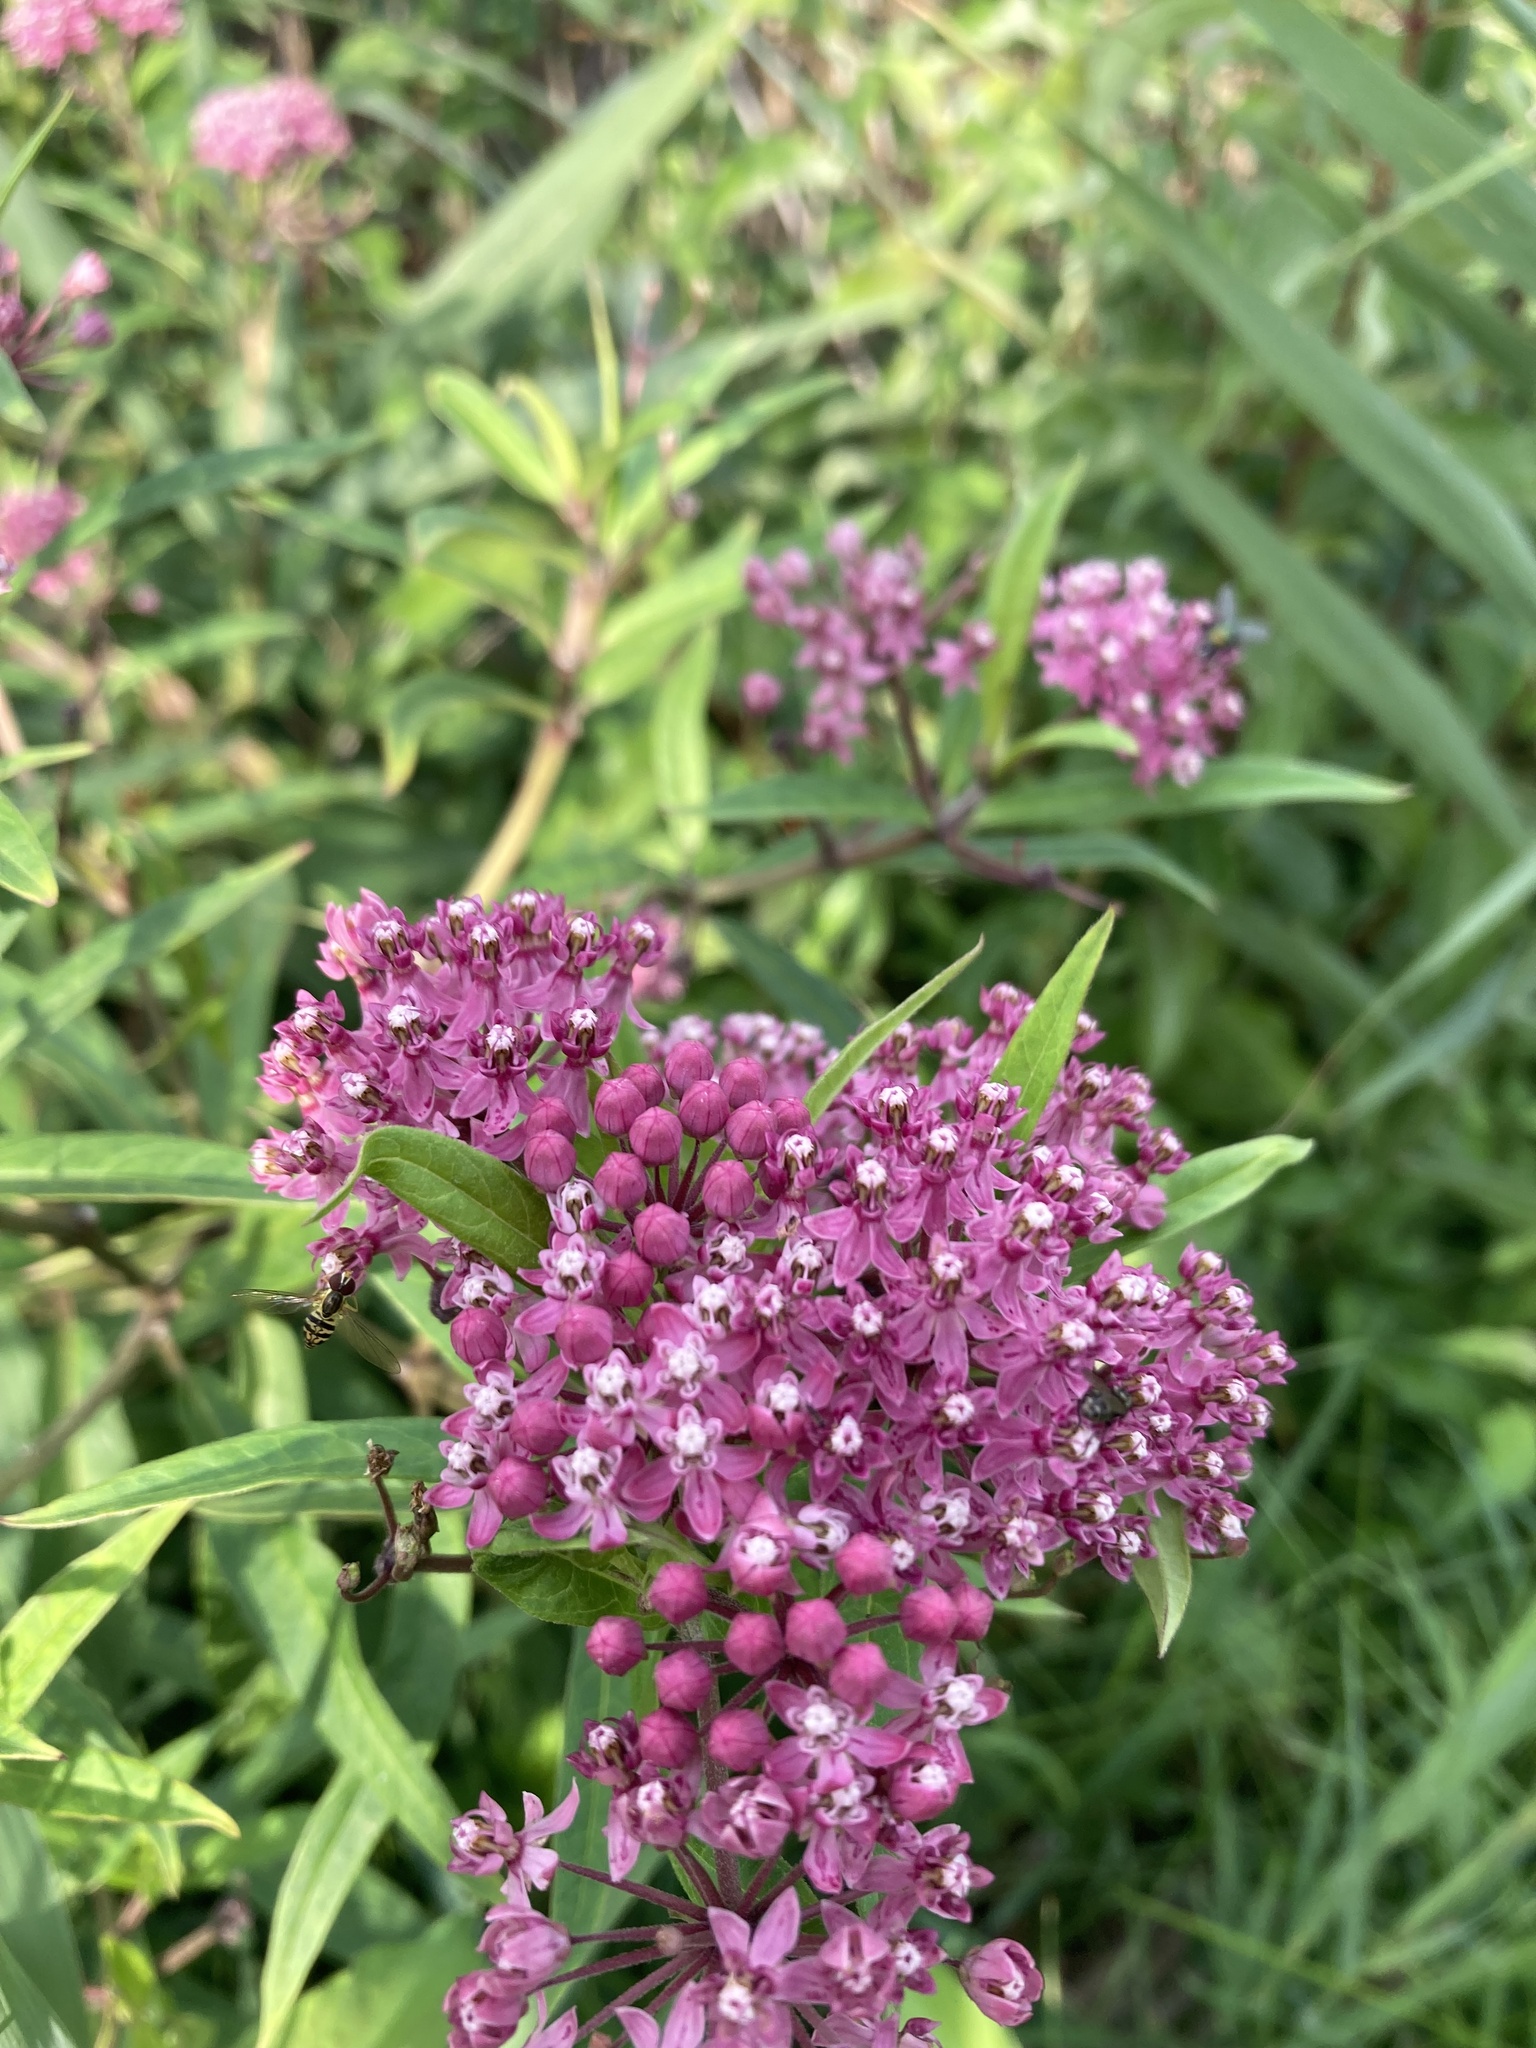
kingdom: Plantae
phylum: Tracheophyta
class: Magnoliopsida
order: Gentianales
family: Apocynaceae
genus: Asclepias
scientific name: Asclepias incarnata
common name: Swamp milkweed
